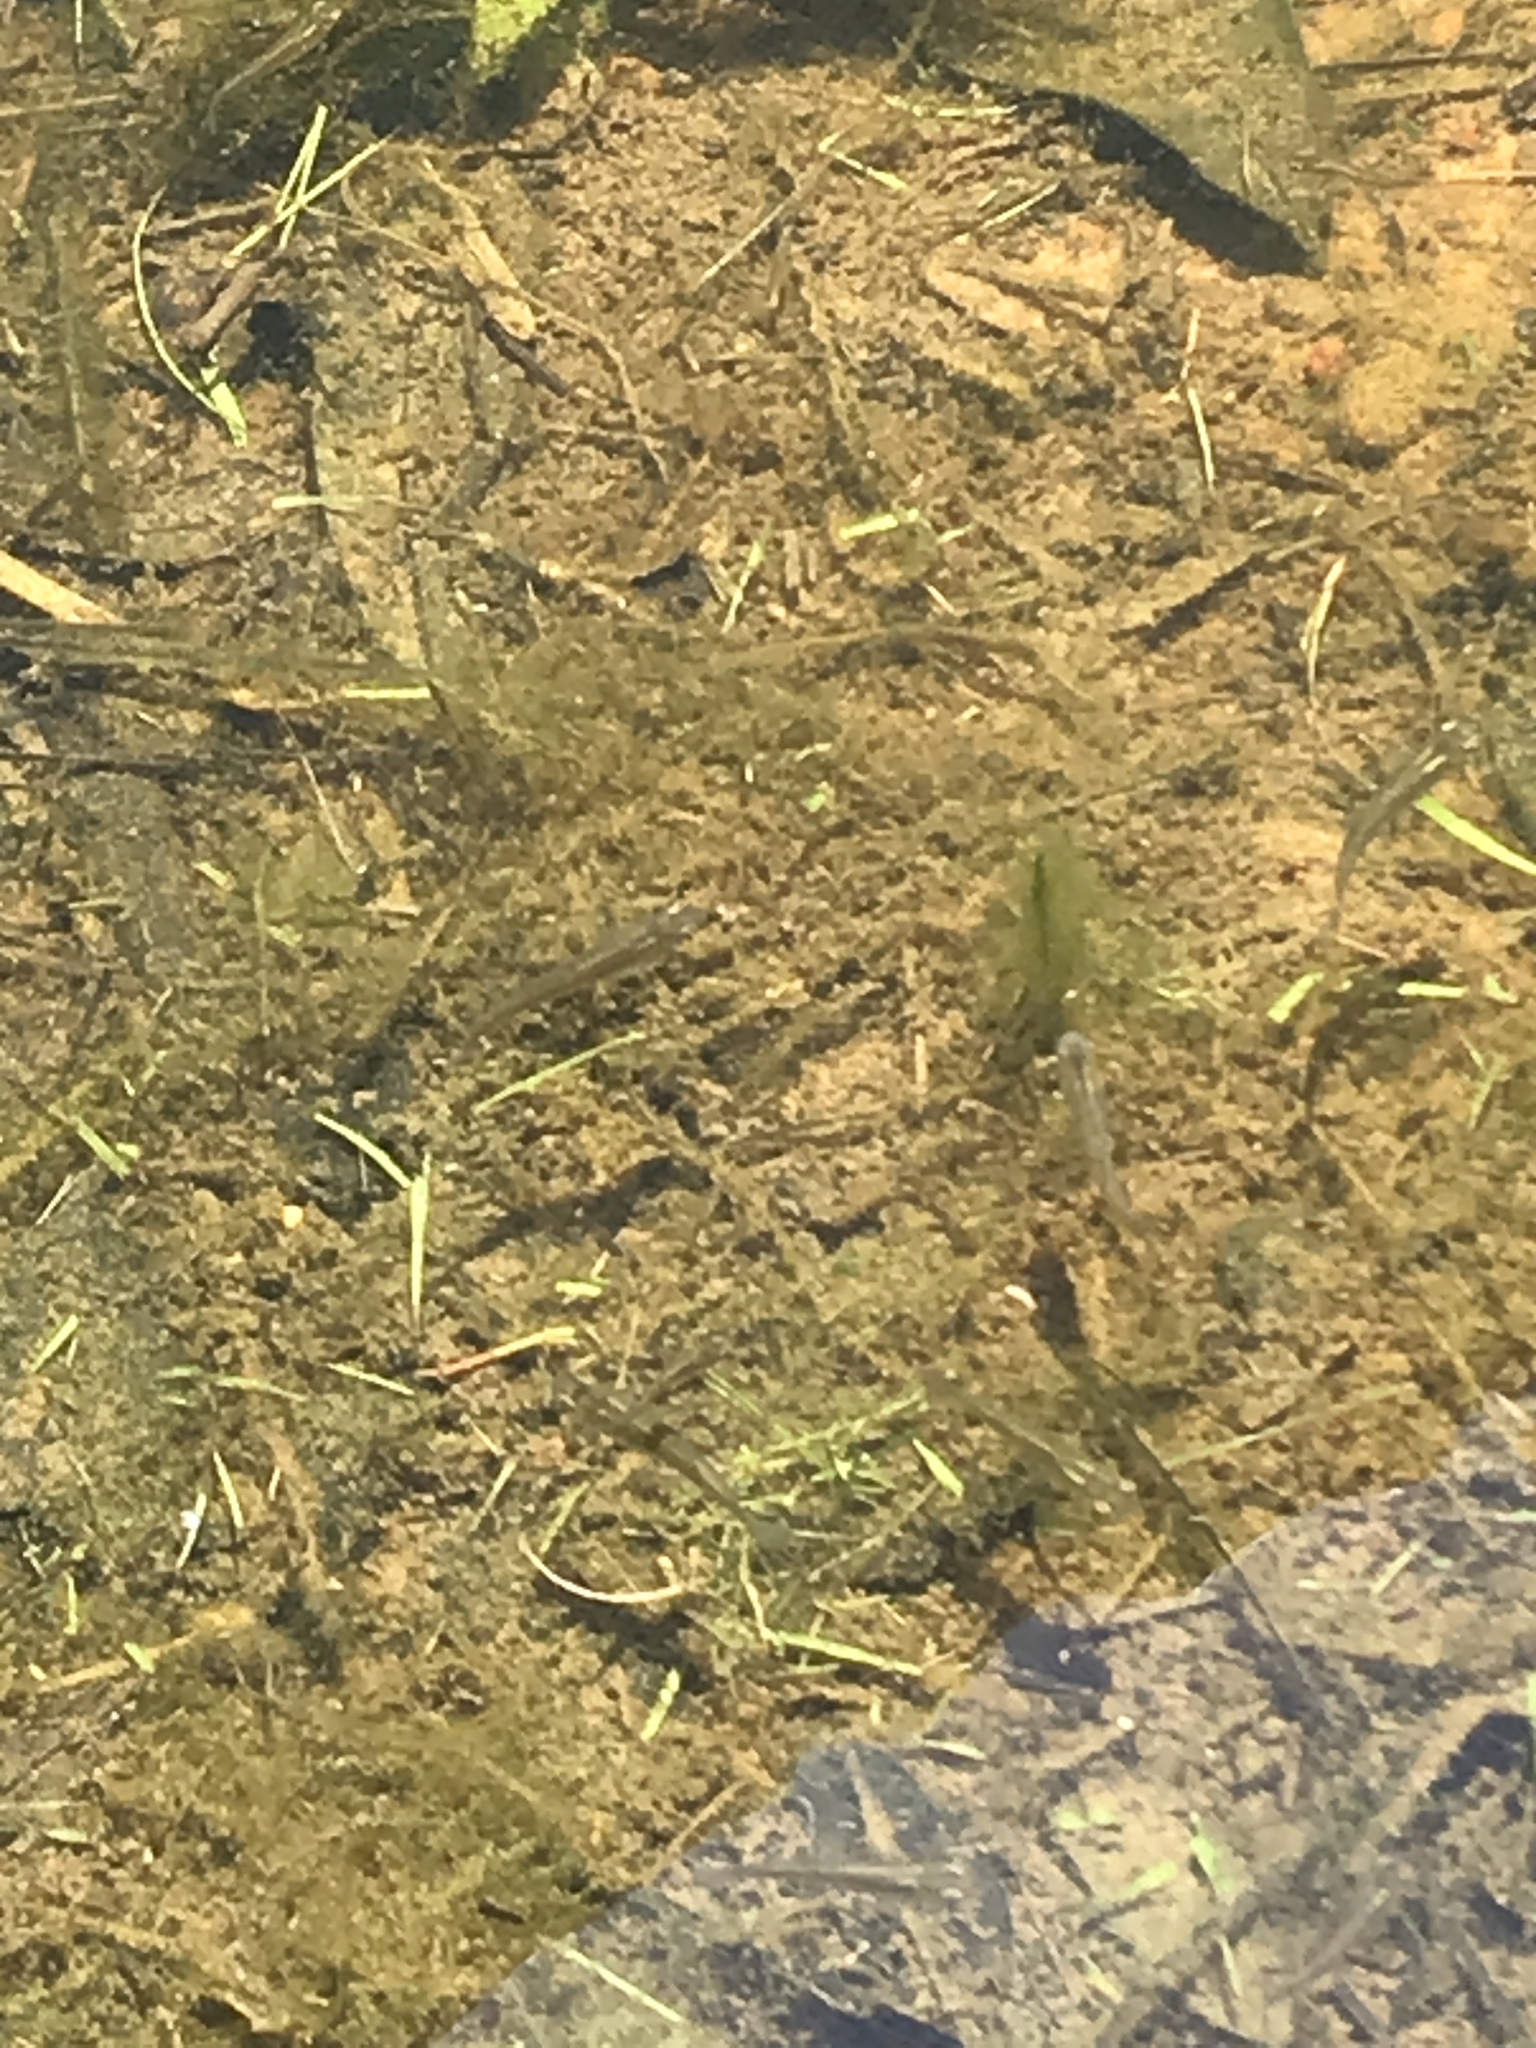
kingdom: Animalia
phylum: Chordata
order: Cyprinodontiformes
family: Poeciliidae
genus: Gambusia
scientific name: Gambusia affinis
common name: Mosquitofish
